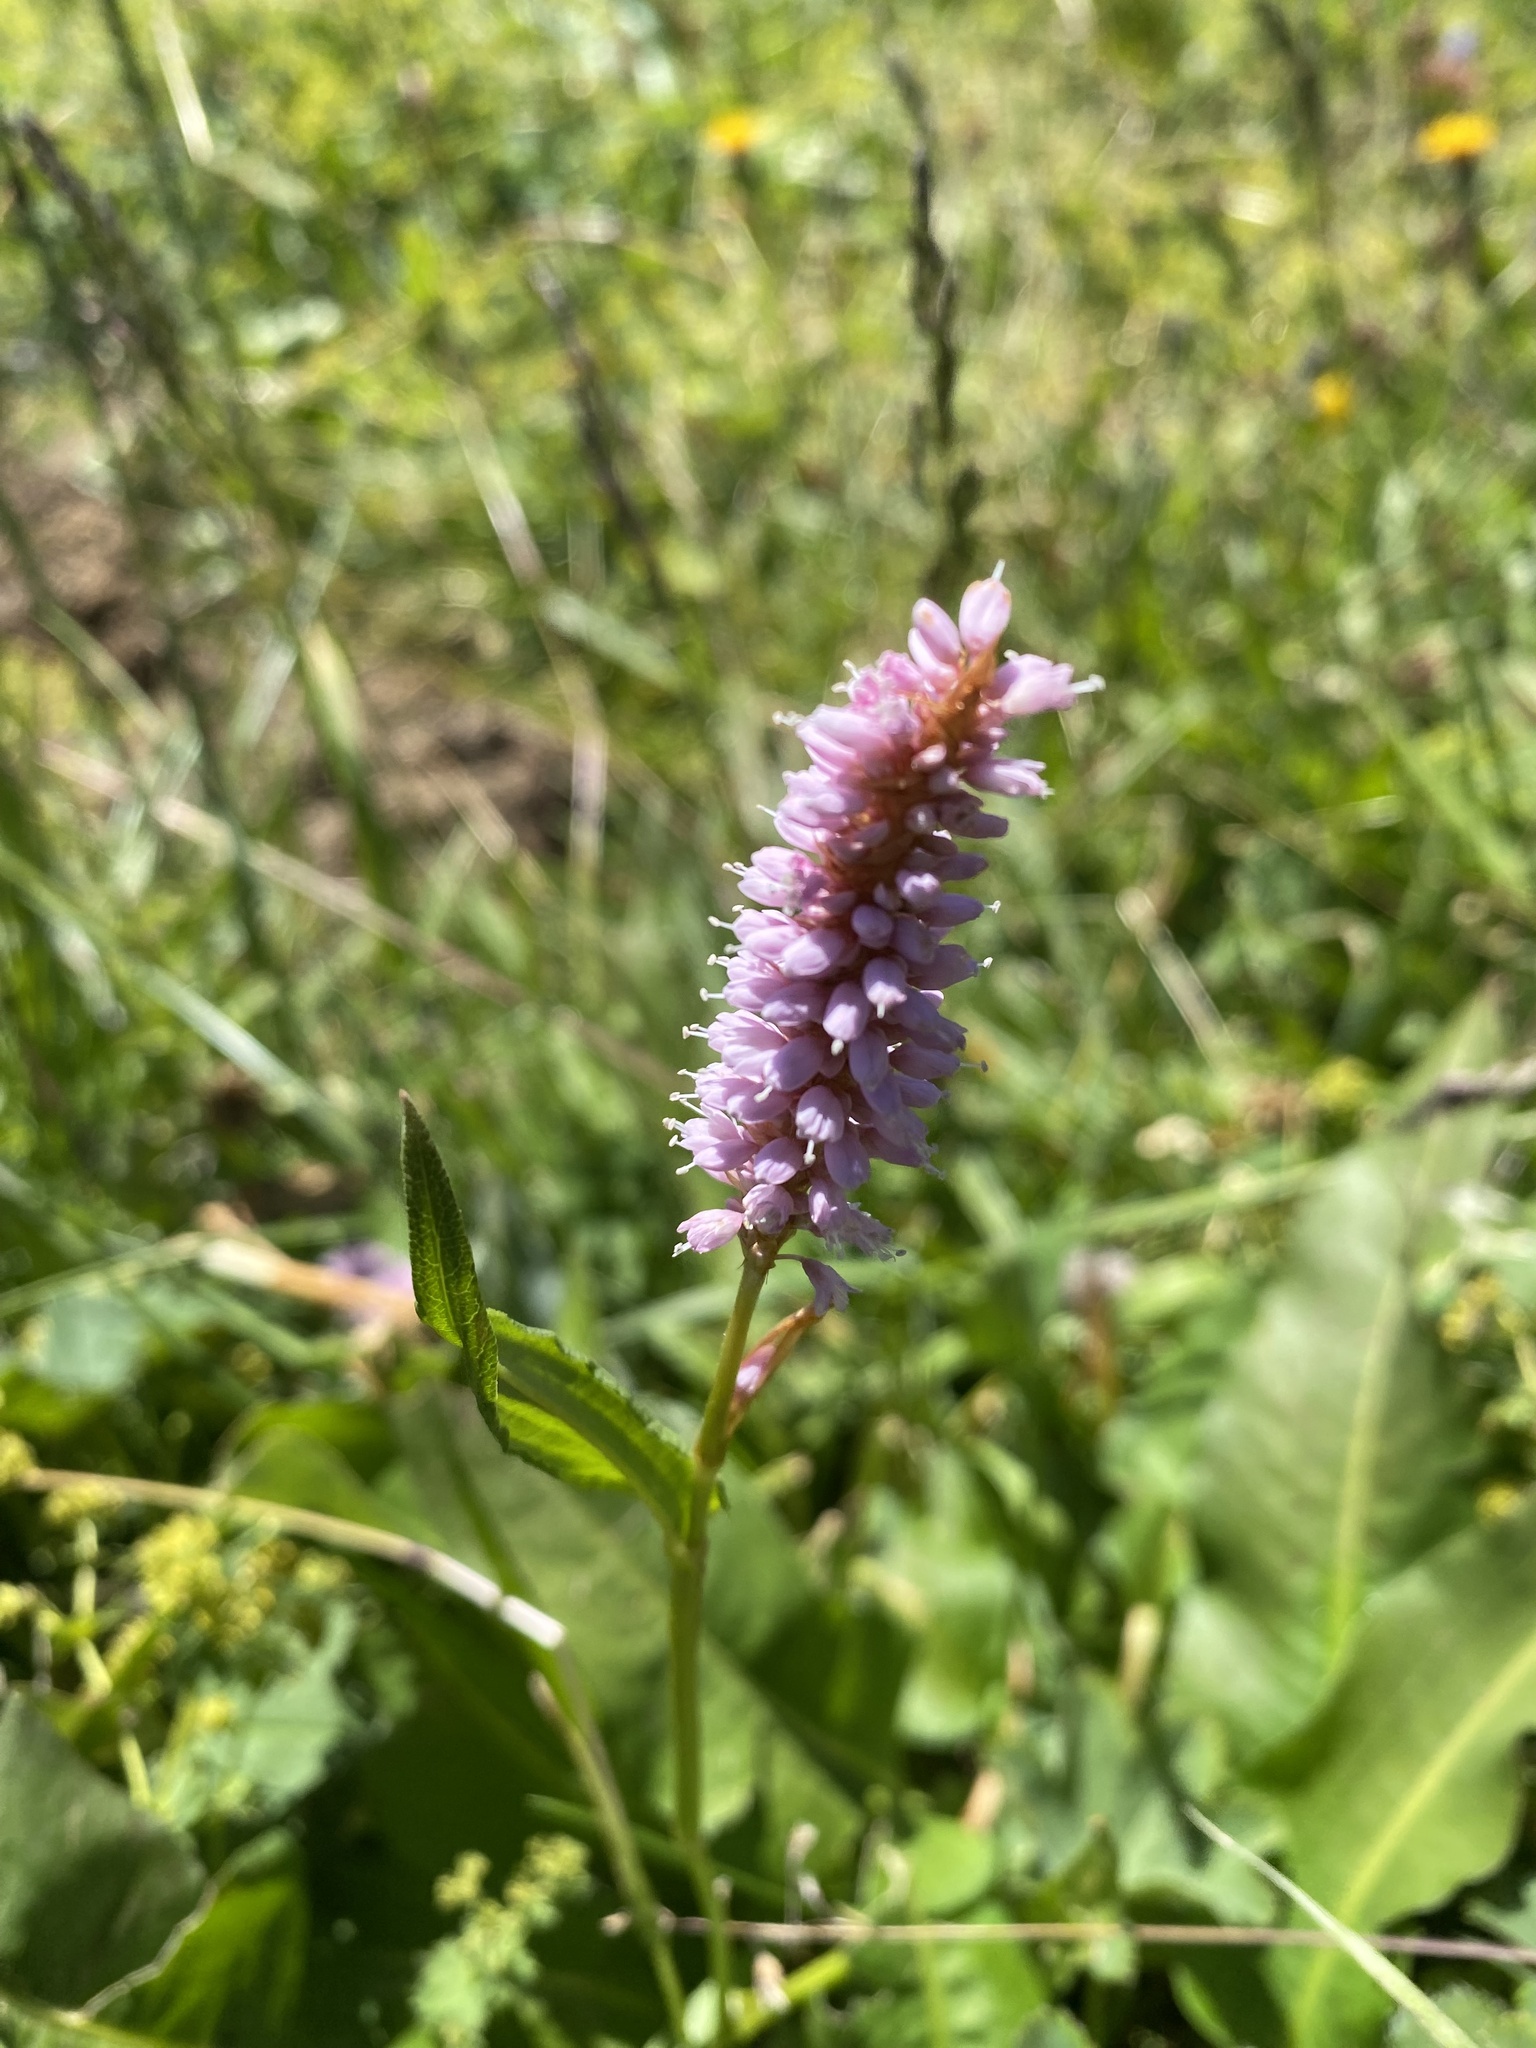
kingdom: Plantae
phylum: Tracheophyta
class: Magnoliopsida
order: Caryophyllales
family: Polygonaceae
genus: Bistorta
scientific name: Bistorta officinalis
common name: Common bistort
